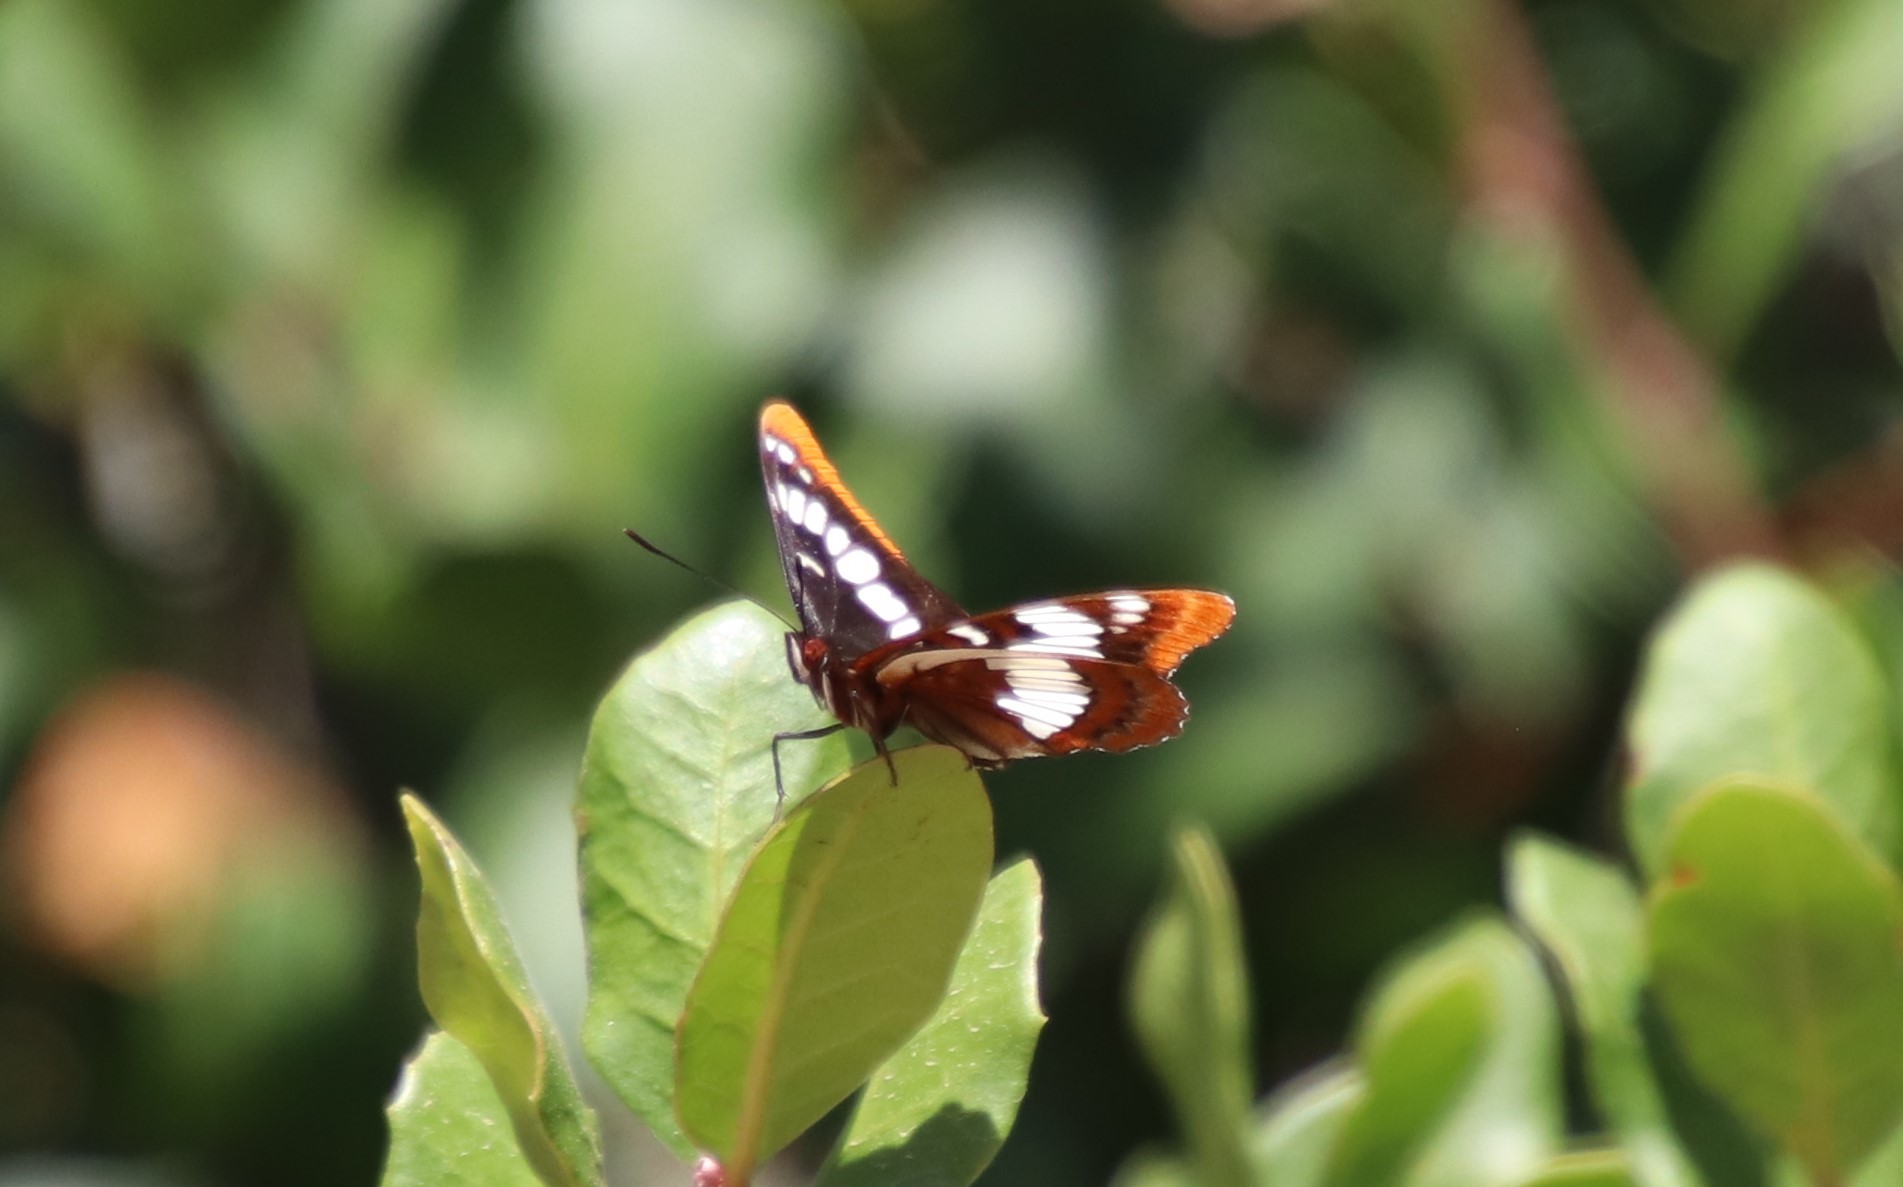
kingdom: Animalia
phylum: Arthropoda
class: Insecta
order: Lepidoptera
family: Nymphalidae
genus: Limenitis
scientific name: Limenitis lorquini
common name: Lorquin's admiral
